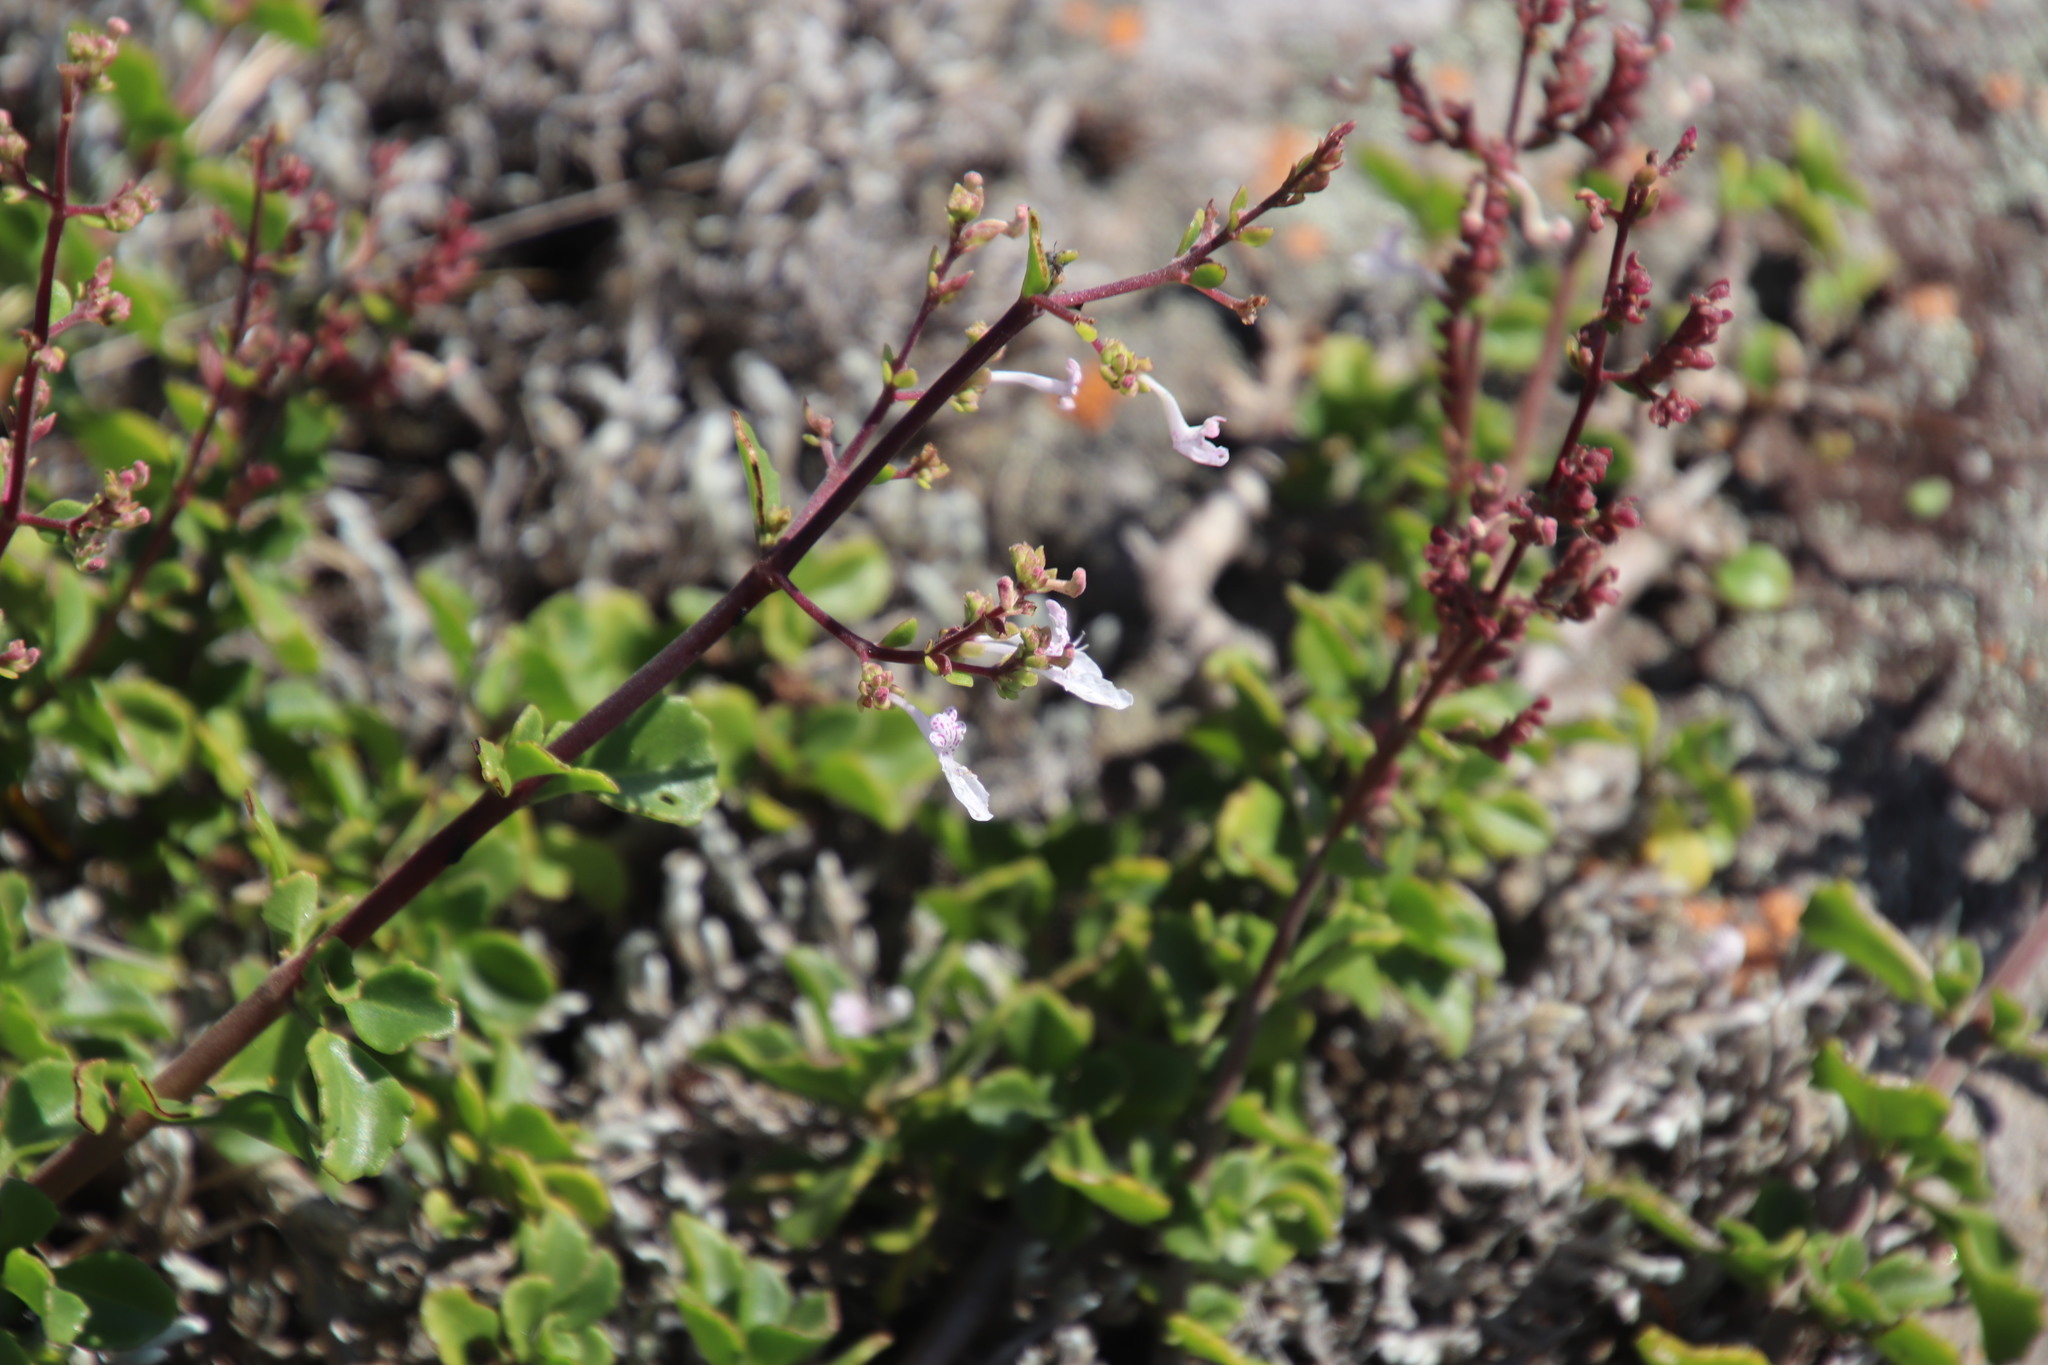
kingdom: Plantae
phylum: Tracheophyta
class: Magnoliopsida
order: Lamiales
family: Lamiaceae
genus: Aeollanthus
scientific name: Aeollanthus parvifolius
